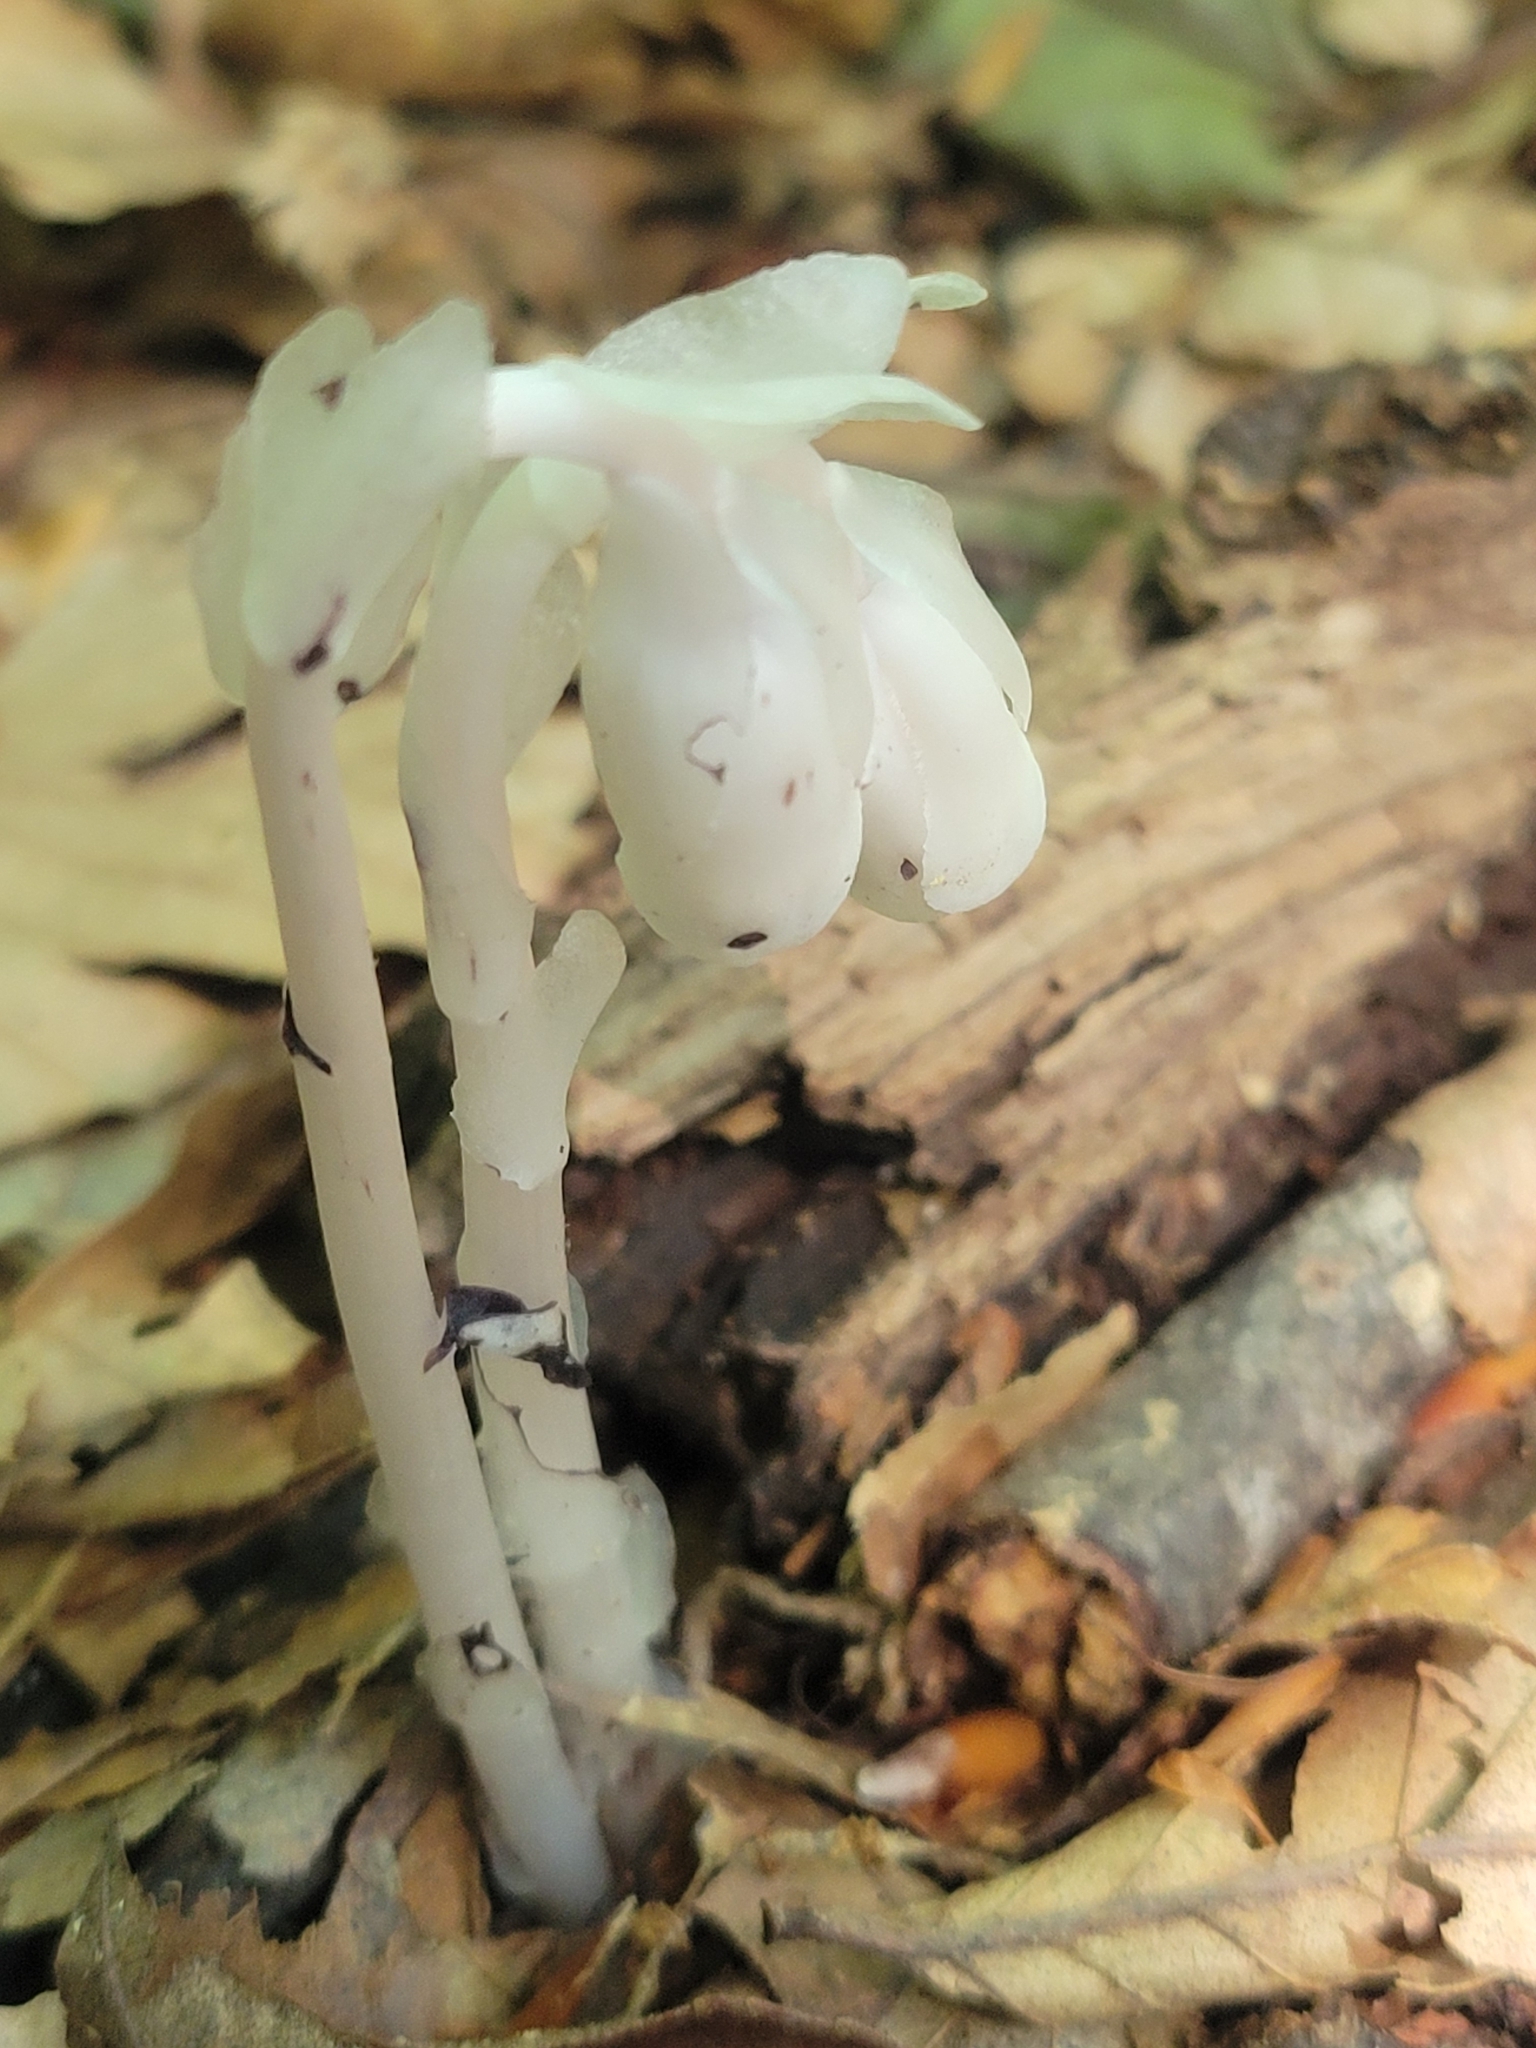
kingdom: Plantae
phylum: Tracheophyta
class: Magnoliopsida
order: Ericales
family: Ericaceae
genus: Monotropa
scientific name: Monotropa uniflora
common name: Convulsion root
